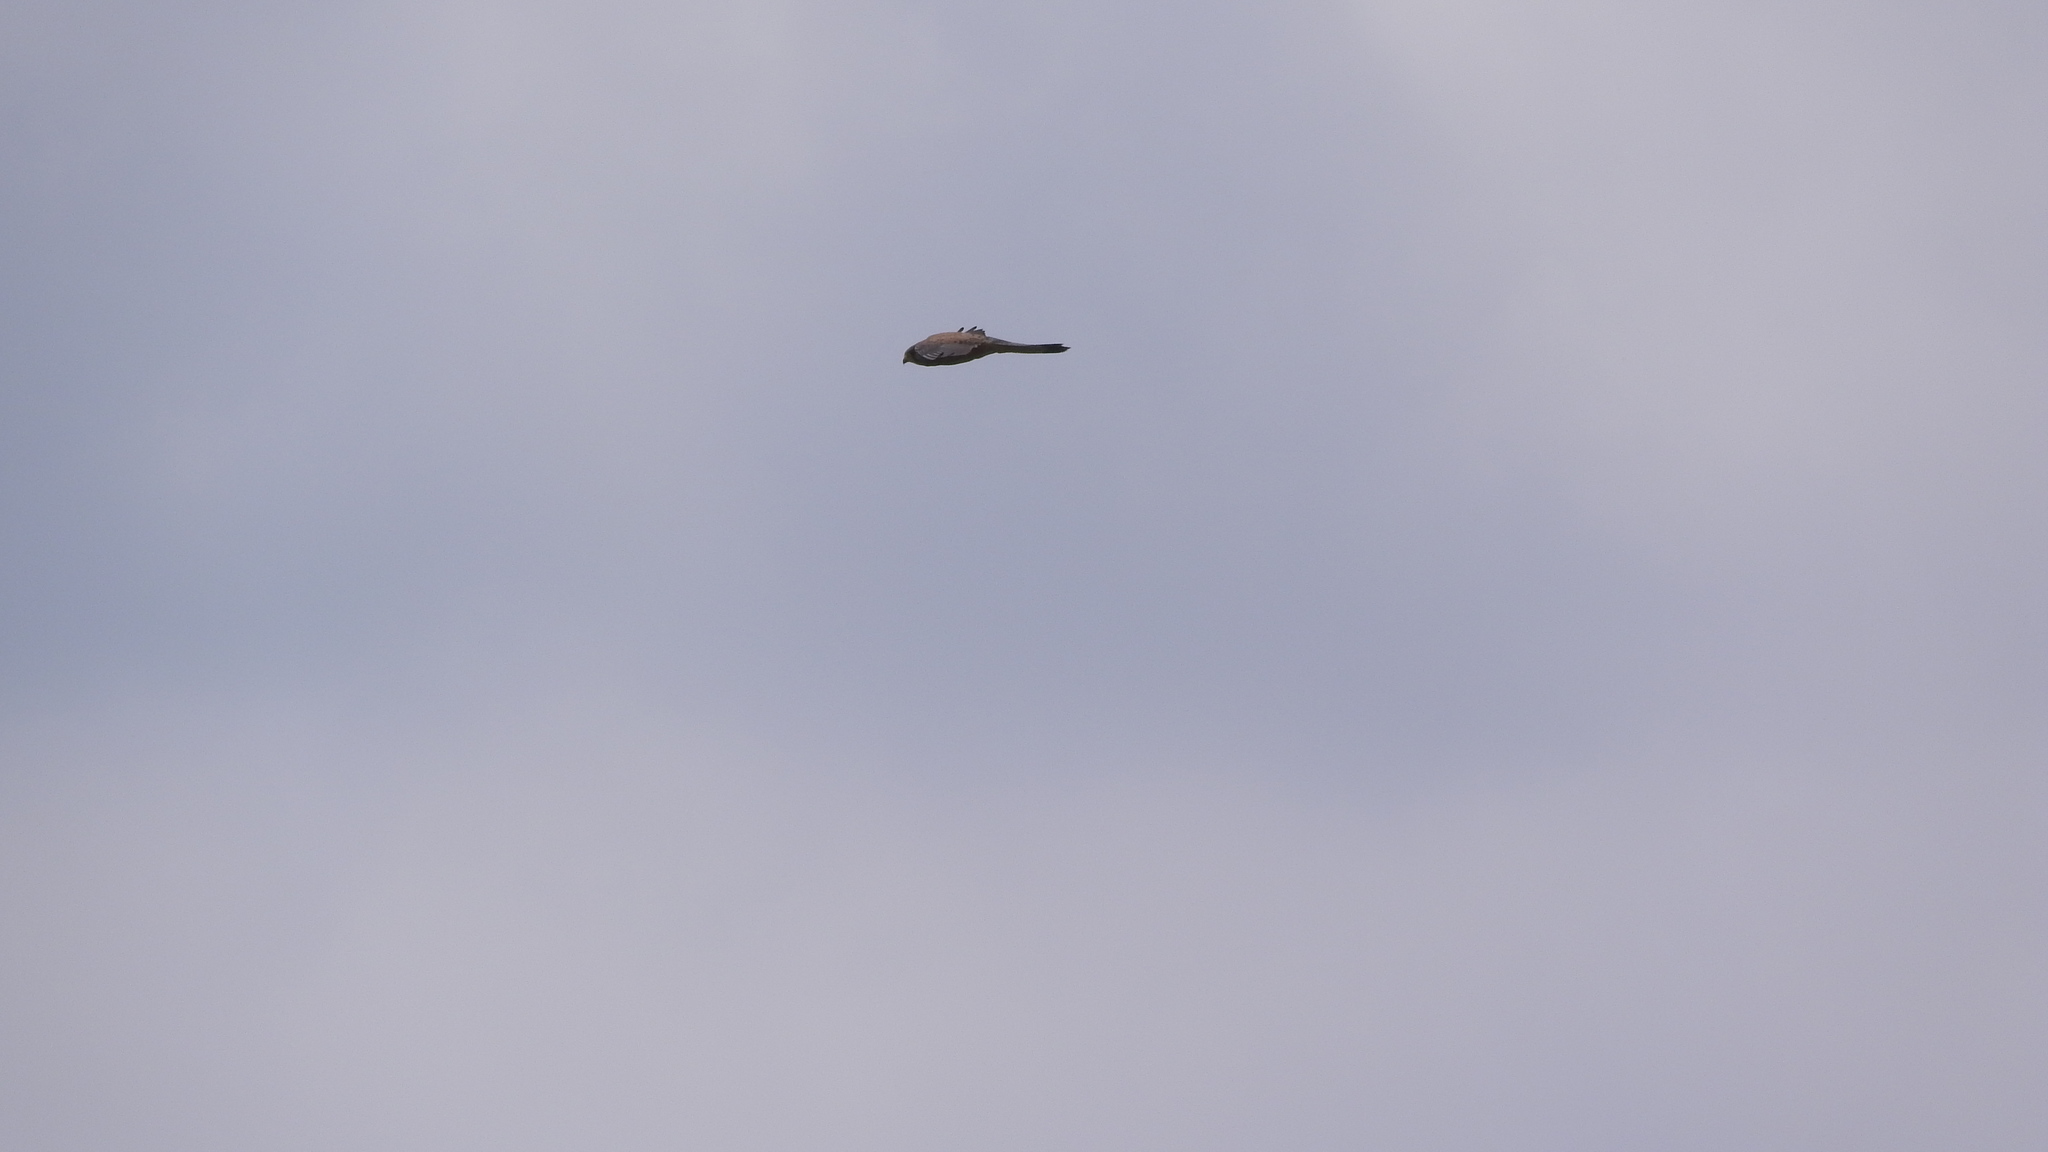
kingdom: Animalia
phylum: Chordata
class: Aves
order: Falconiformes
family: Falconidae
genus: Falco
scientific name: Falco tinnunculus
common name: Common kestrel
